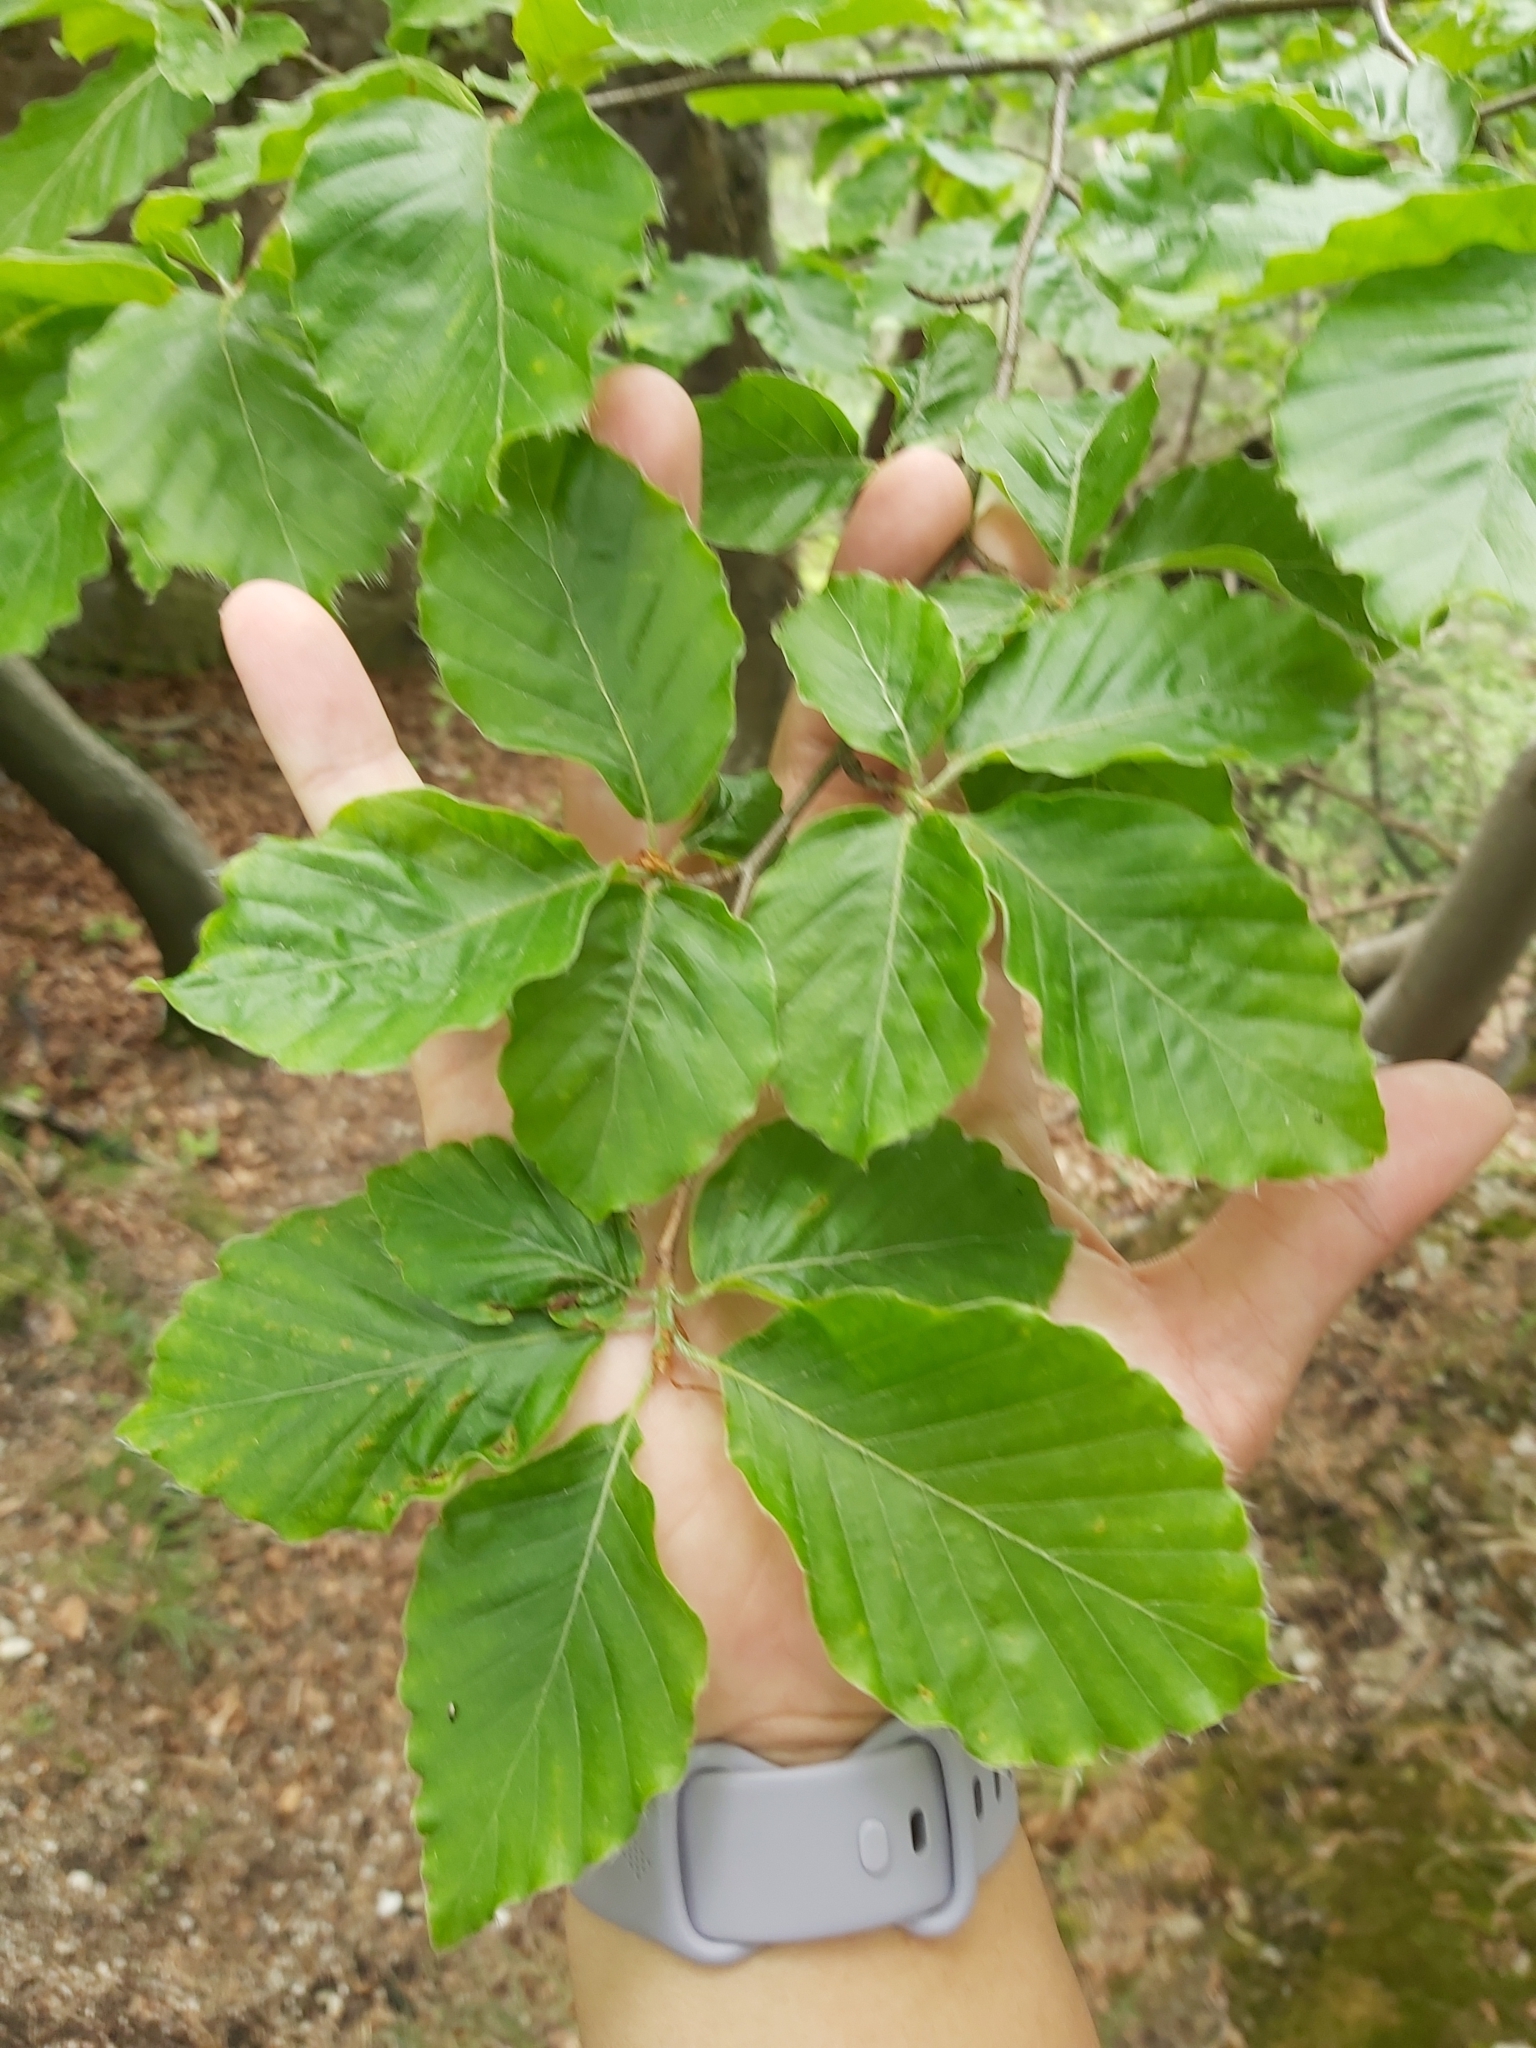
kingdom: Plantae
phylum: Tracheophyta
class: Magnoliopsida
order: Fagales
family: Fagaceae
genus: Fagus
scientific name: Fagus sylvatica
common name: Beech
